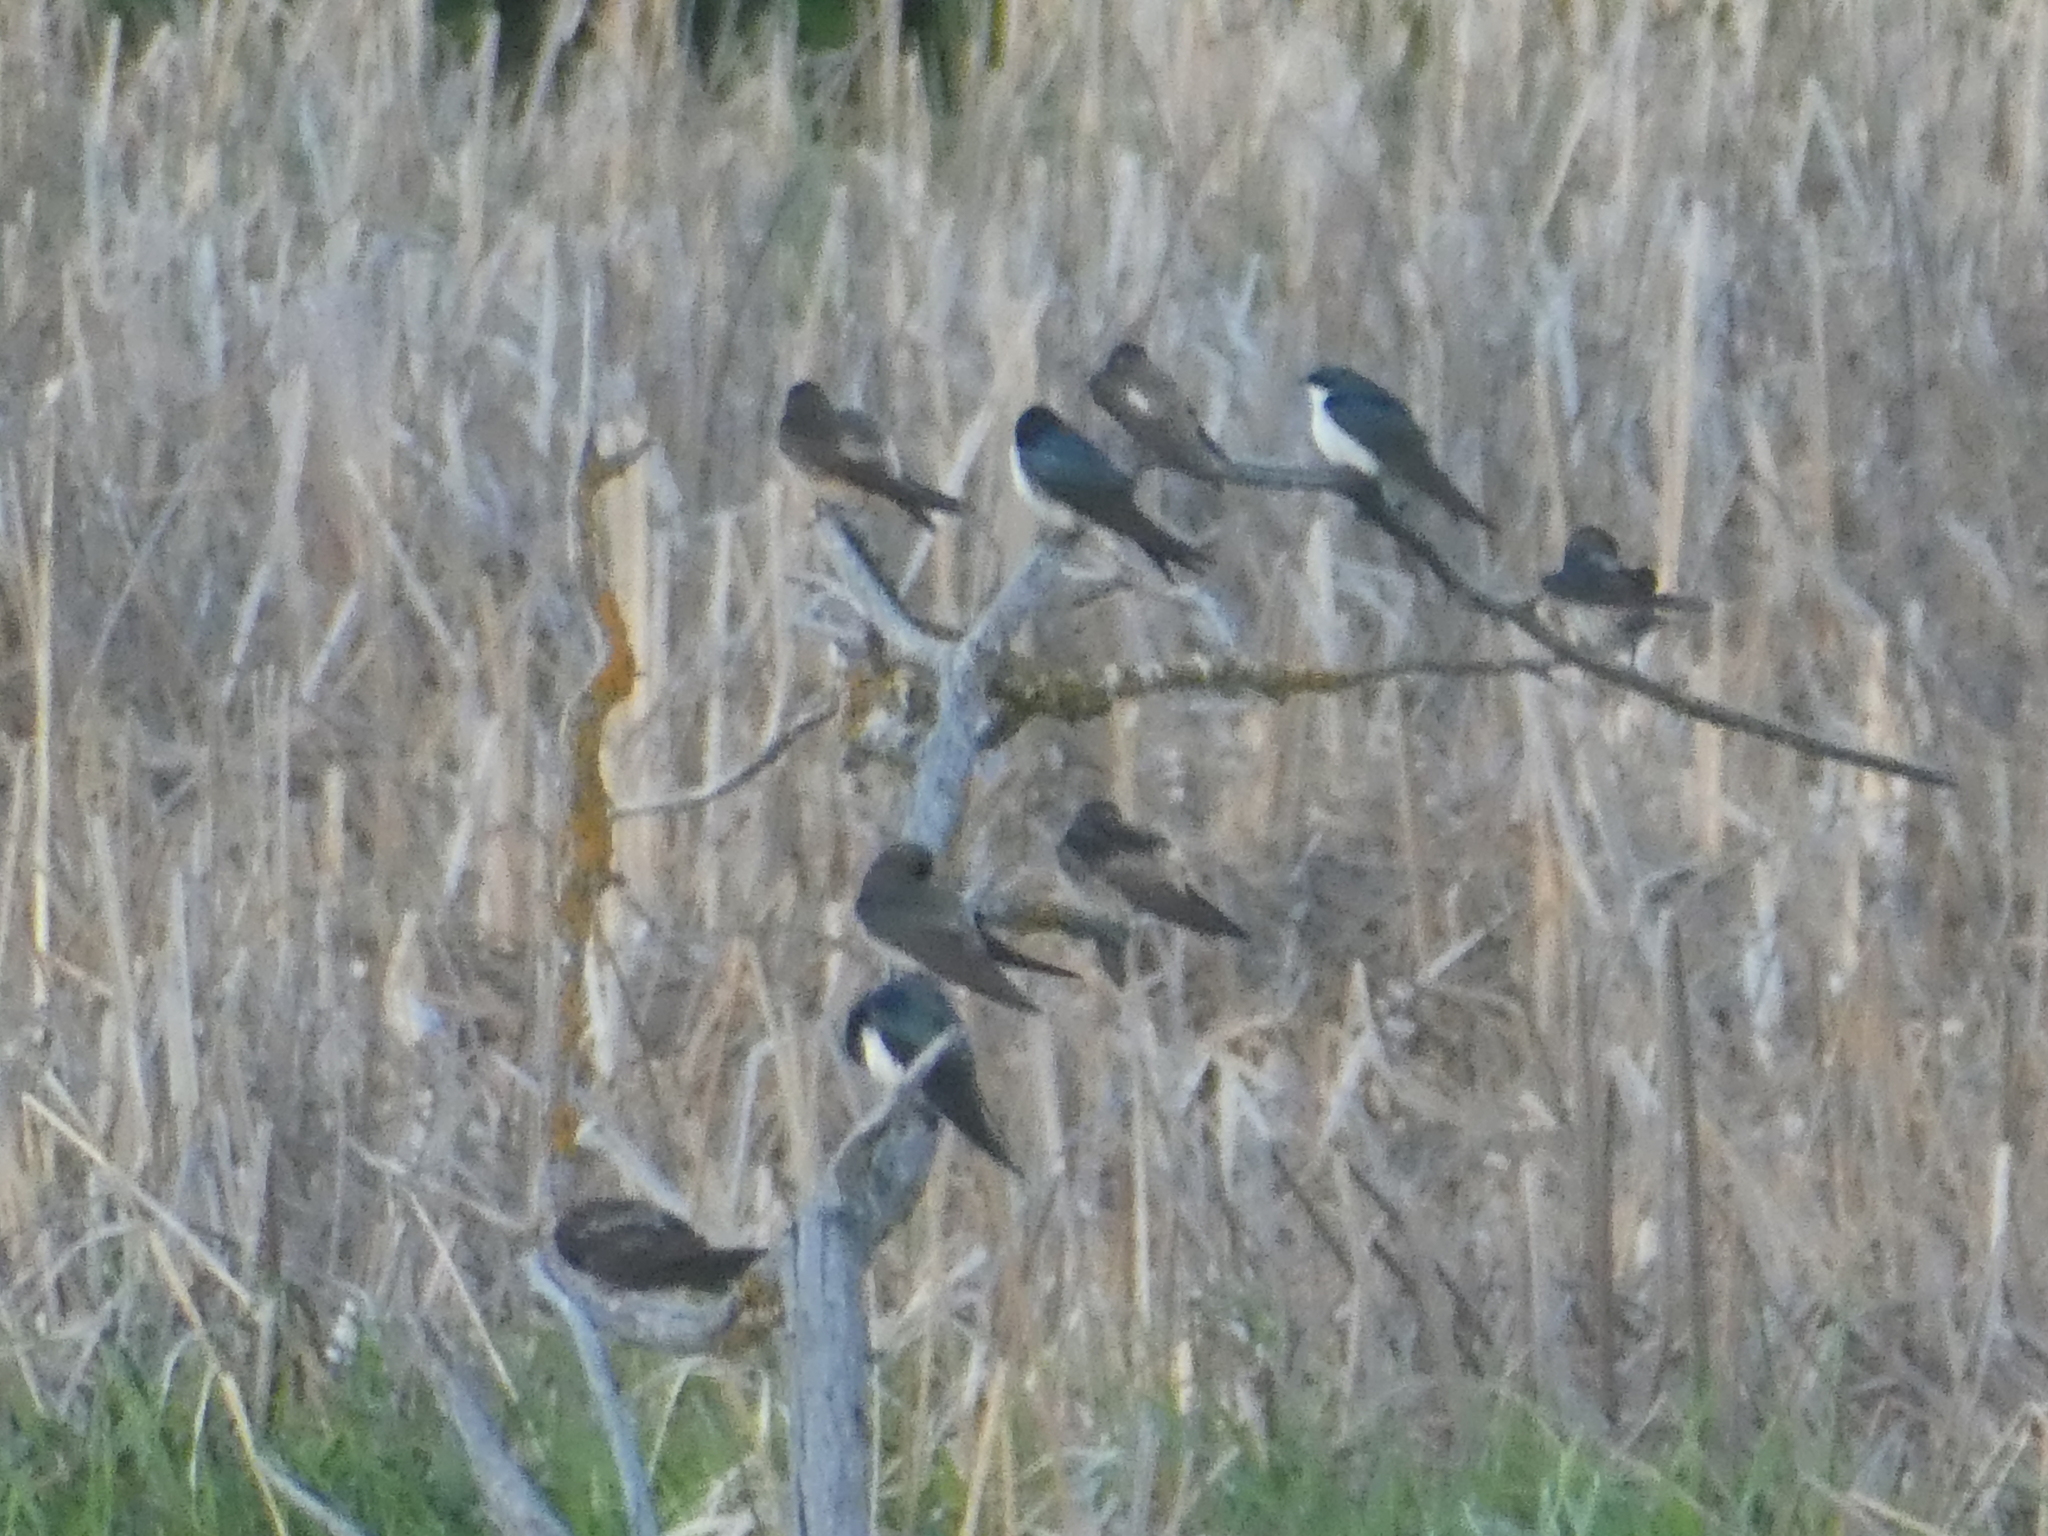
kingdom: Animalia
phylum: Chordata
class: Aves
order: Passeriformes
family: Hirundinidae
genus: Tachycineta
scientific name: Tachycineta bicolor
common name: Tree swallow
